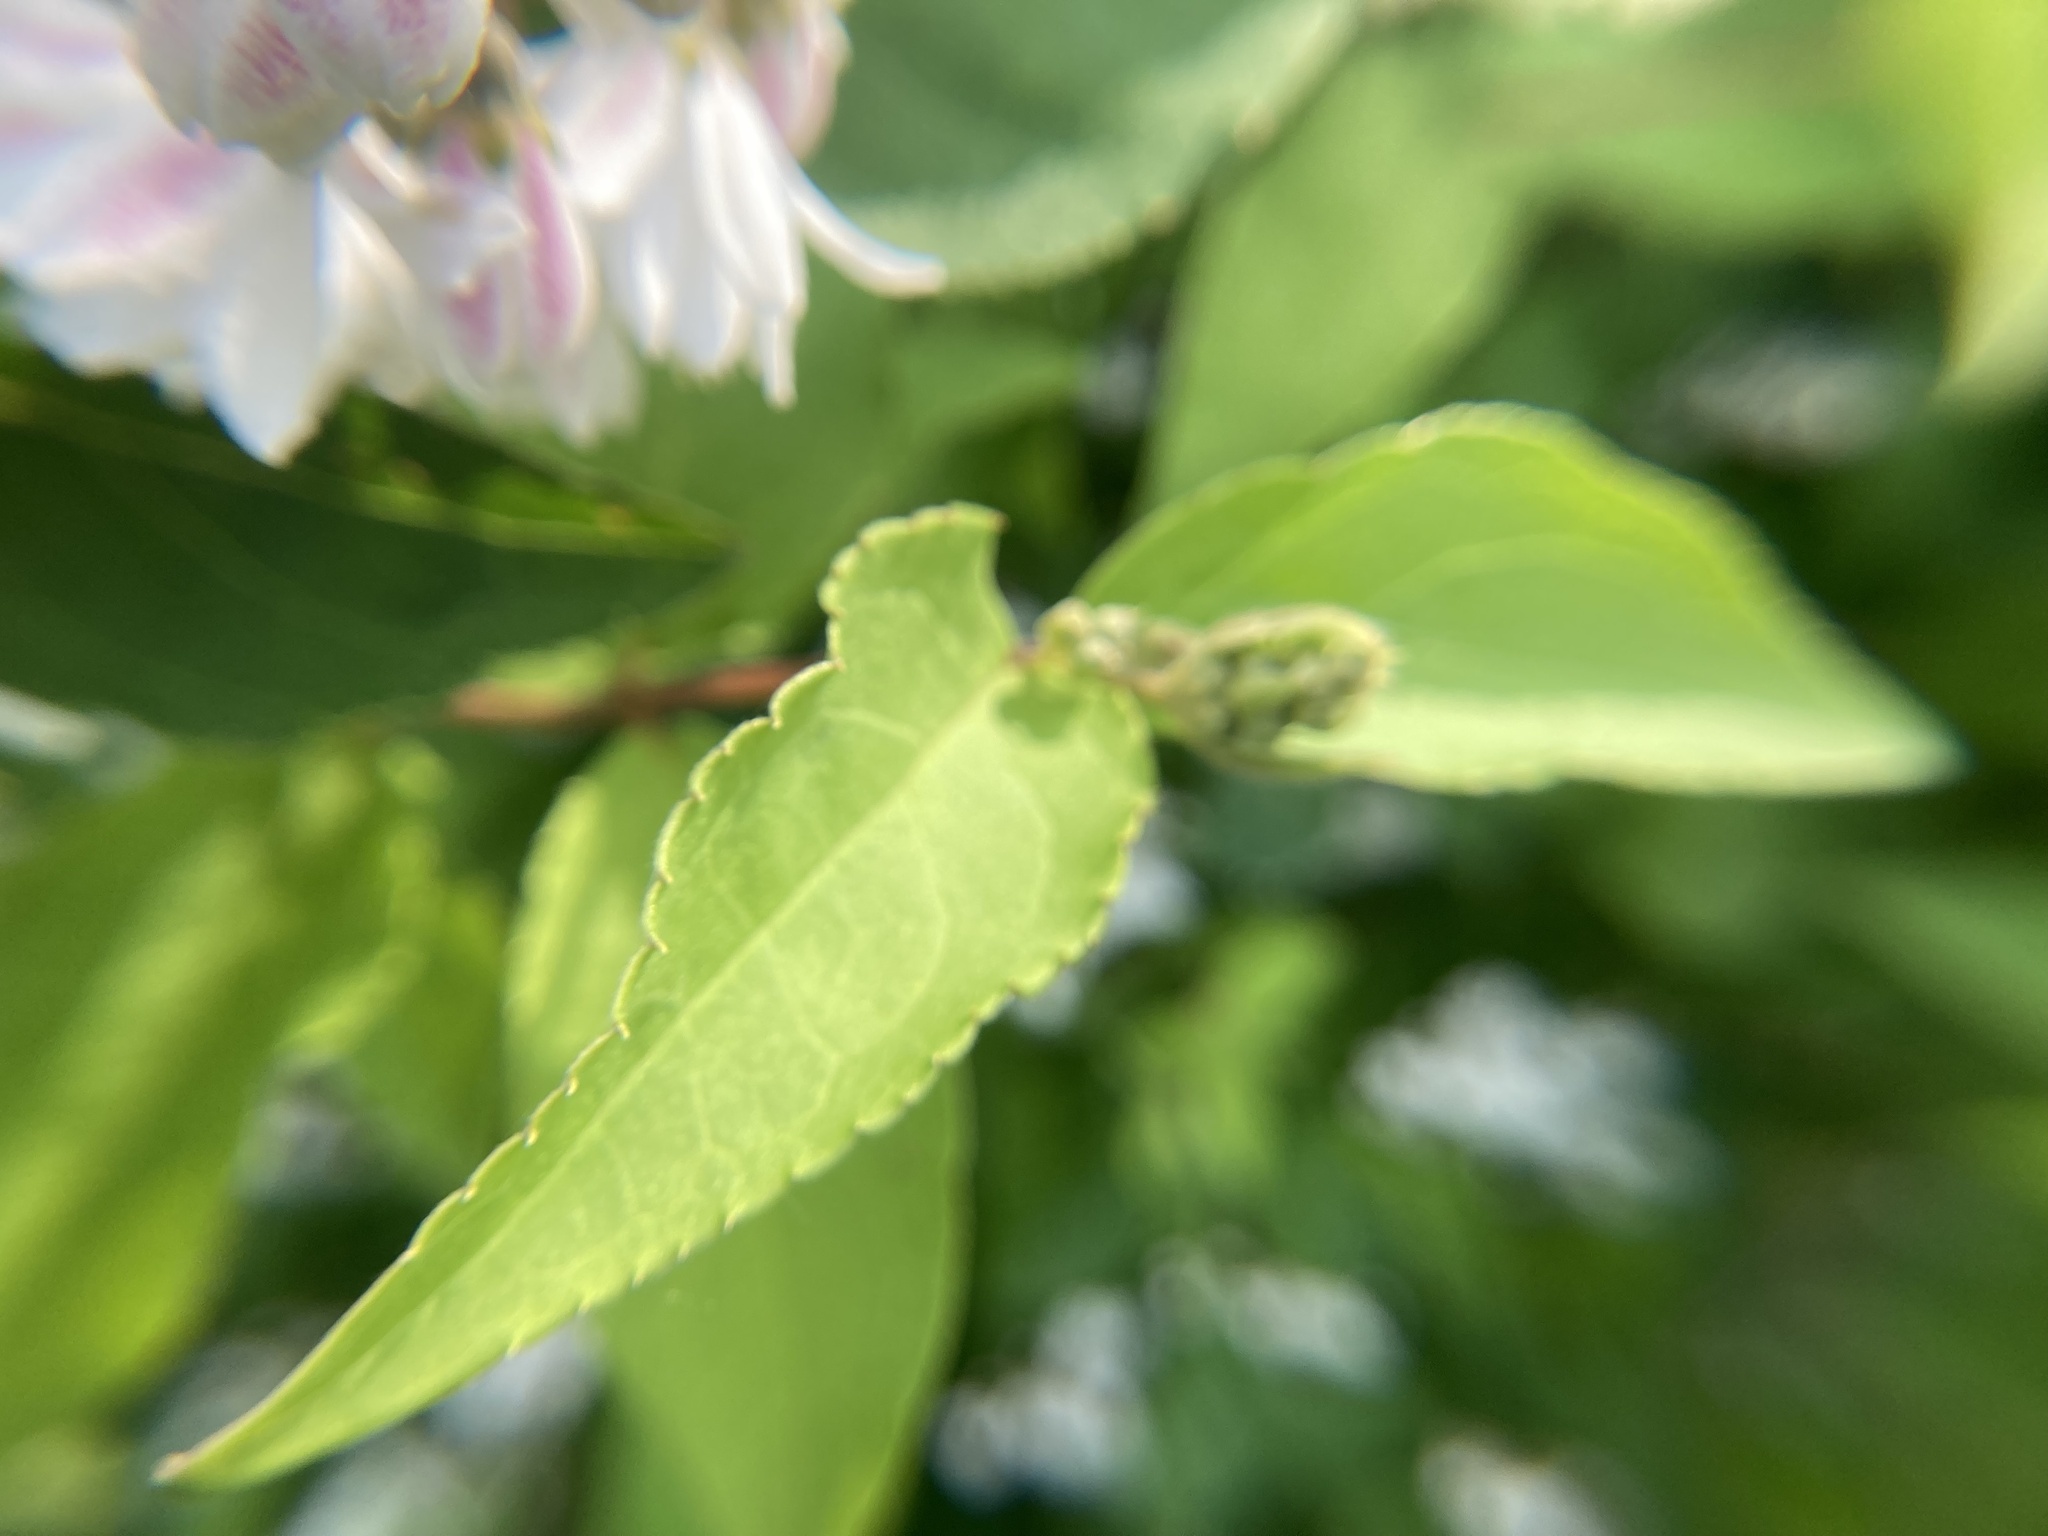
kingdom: Plantae
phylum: Tracheophyta
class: Magnoliopsida
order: Gentianales
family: Apocynaceae
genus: Apocynum
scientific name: Apocynum androsaemifolium
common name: Spreading dogbane
